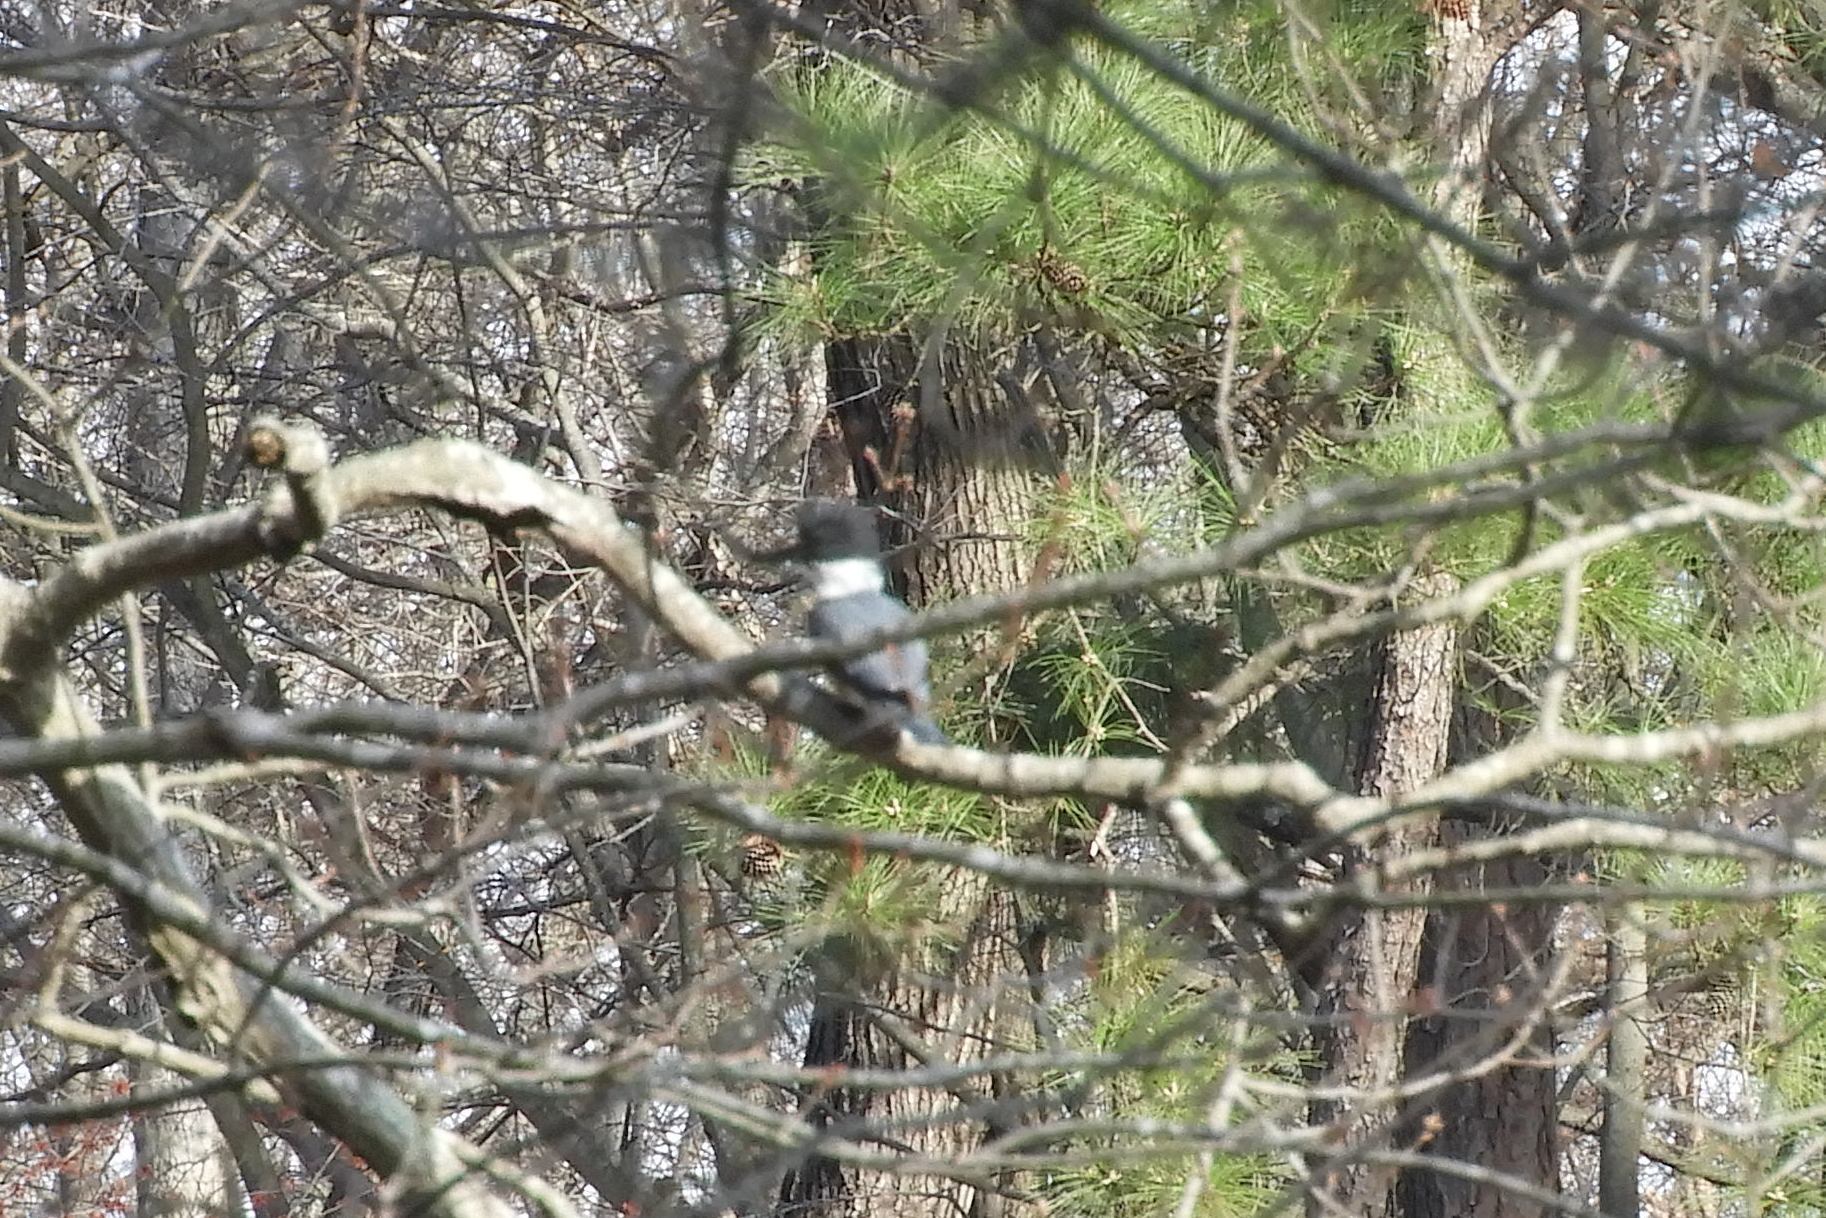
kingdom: Animalia
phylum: Chordata
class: Aves
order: Coraciiformes
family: Alcedinidae
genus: Megaceryle
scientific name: Megaceryle alcyon
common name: Belted kingfisher
